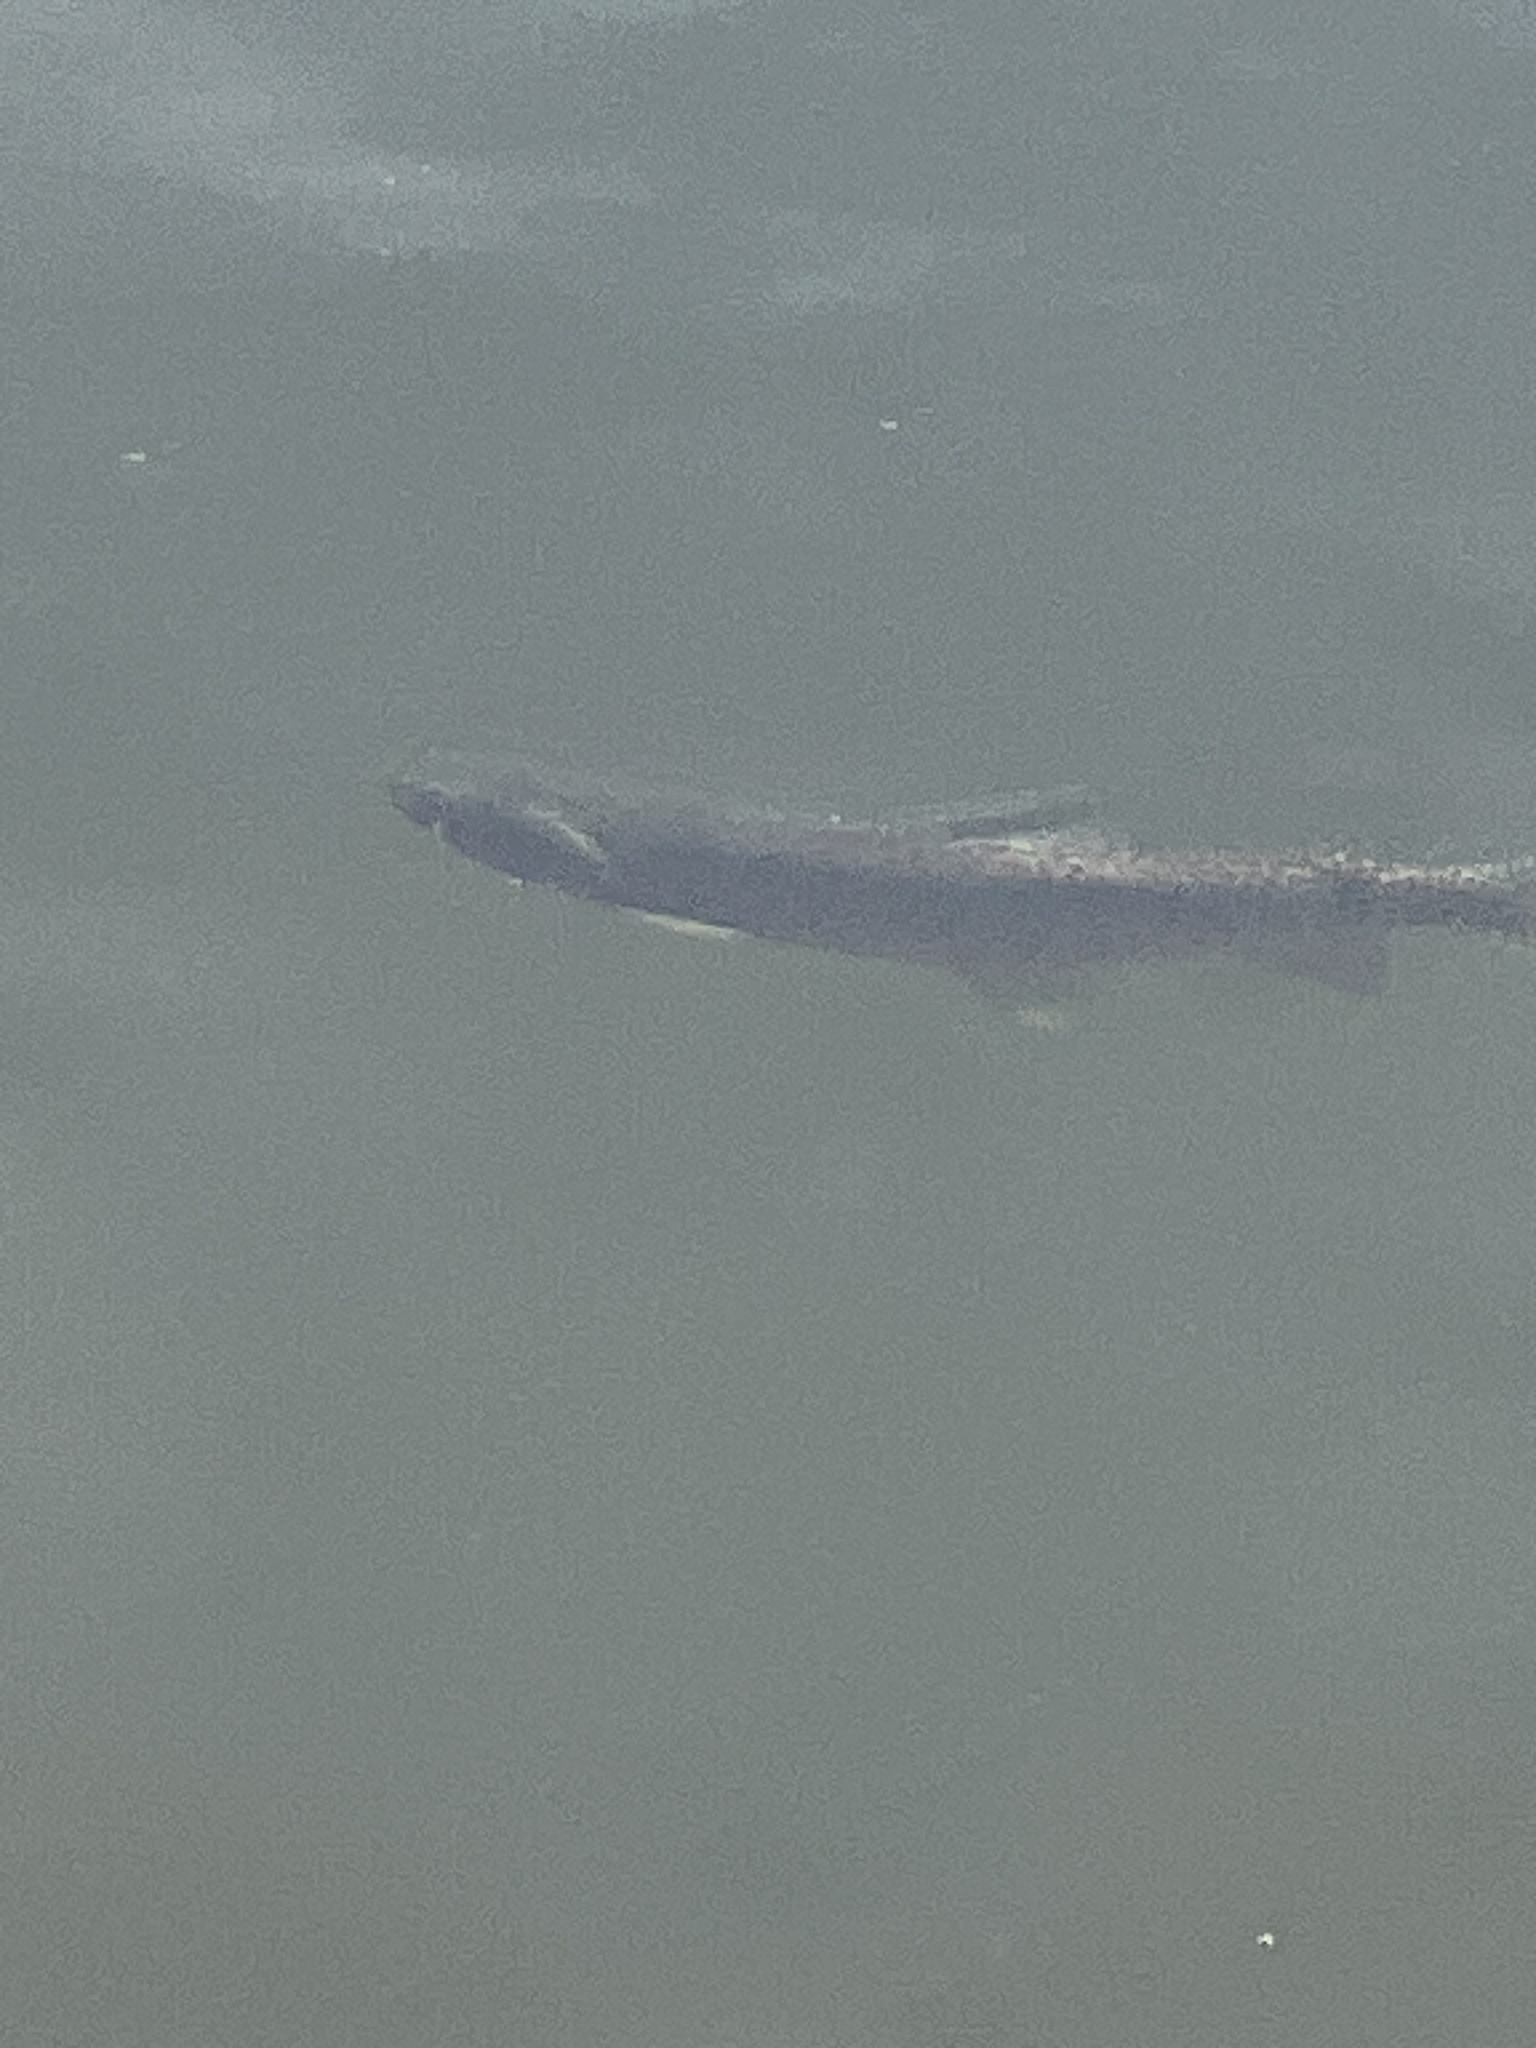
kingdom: Animalia
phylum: Chordata
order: Salmoniformes
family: Salmonidae
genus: Oncorhynchus
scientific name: Oncorhynchus virginalis
